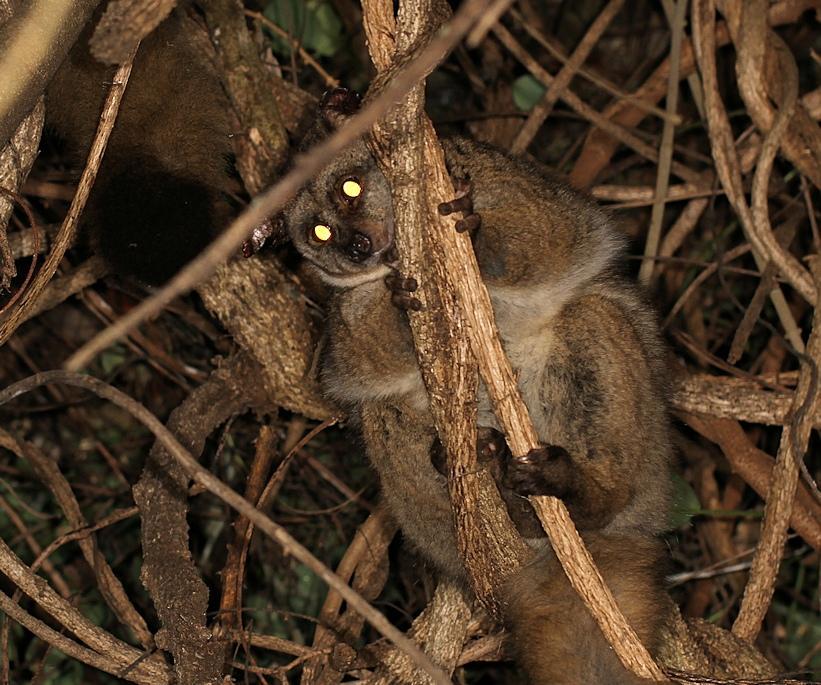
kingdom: Animalia
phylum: Chordata
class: Mammalia
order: Primates
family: Galagidae
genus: Otolemur
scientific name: Otolemur crassicaudatus
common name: Brown greater galago
